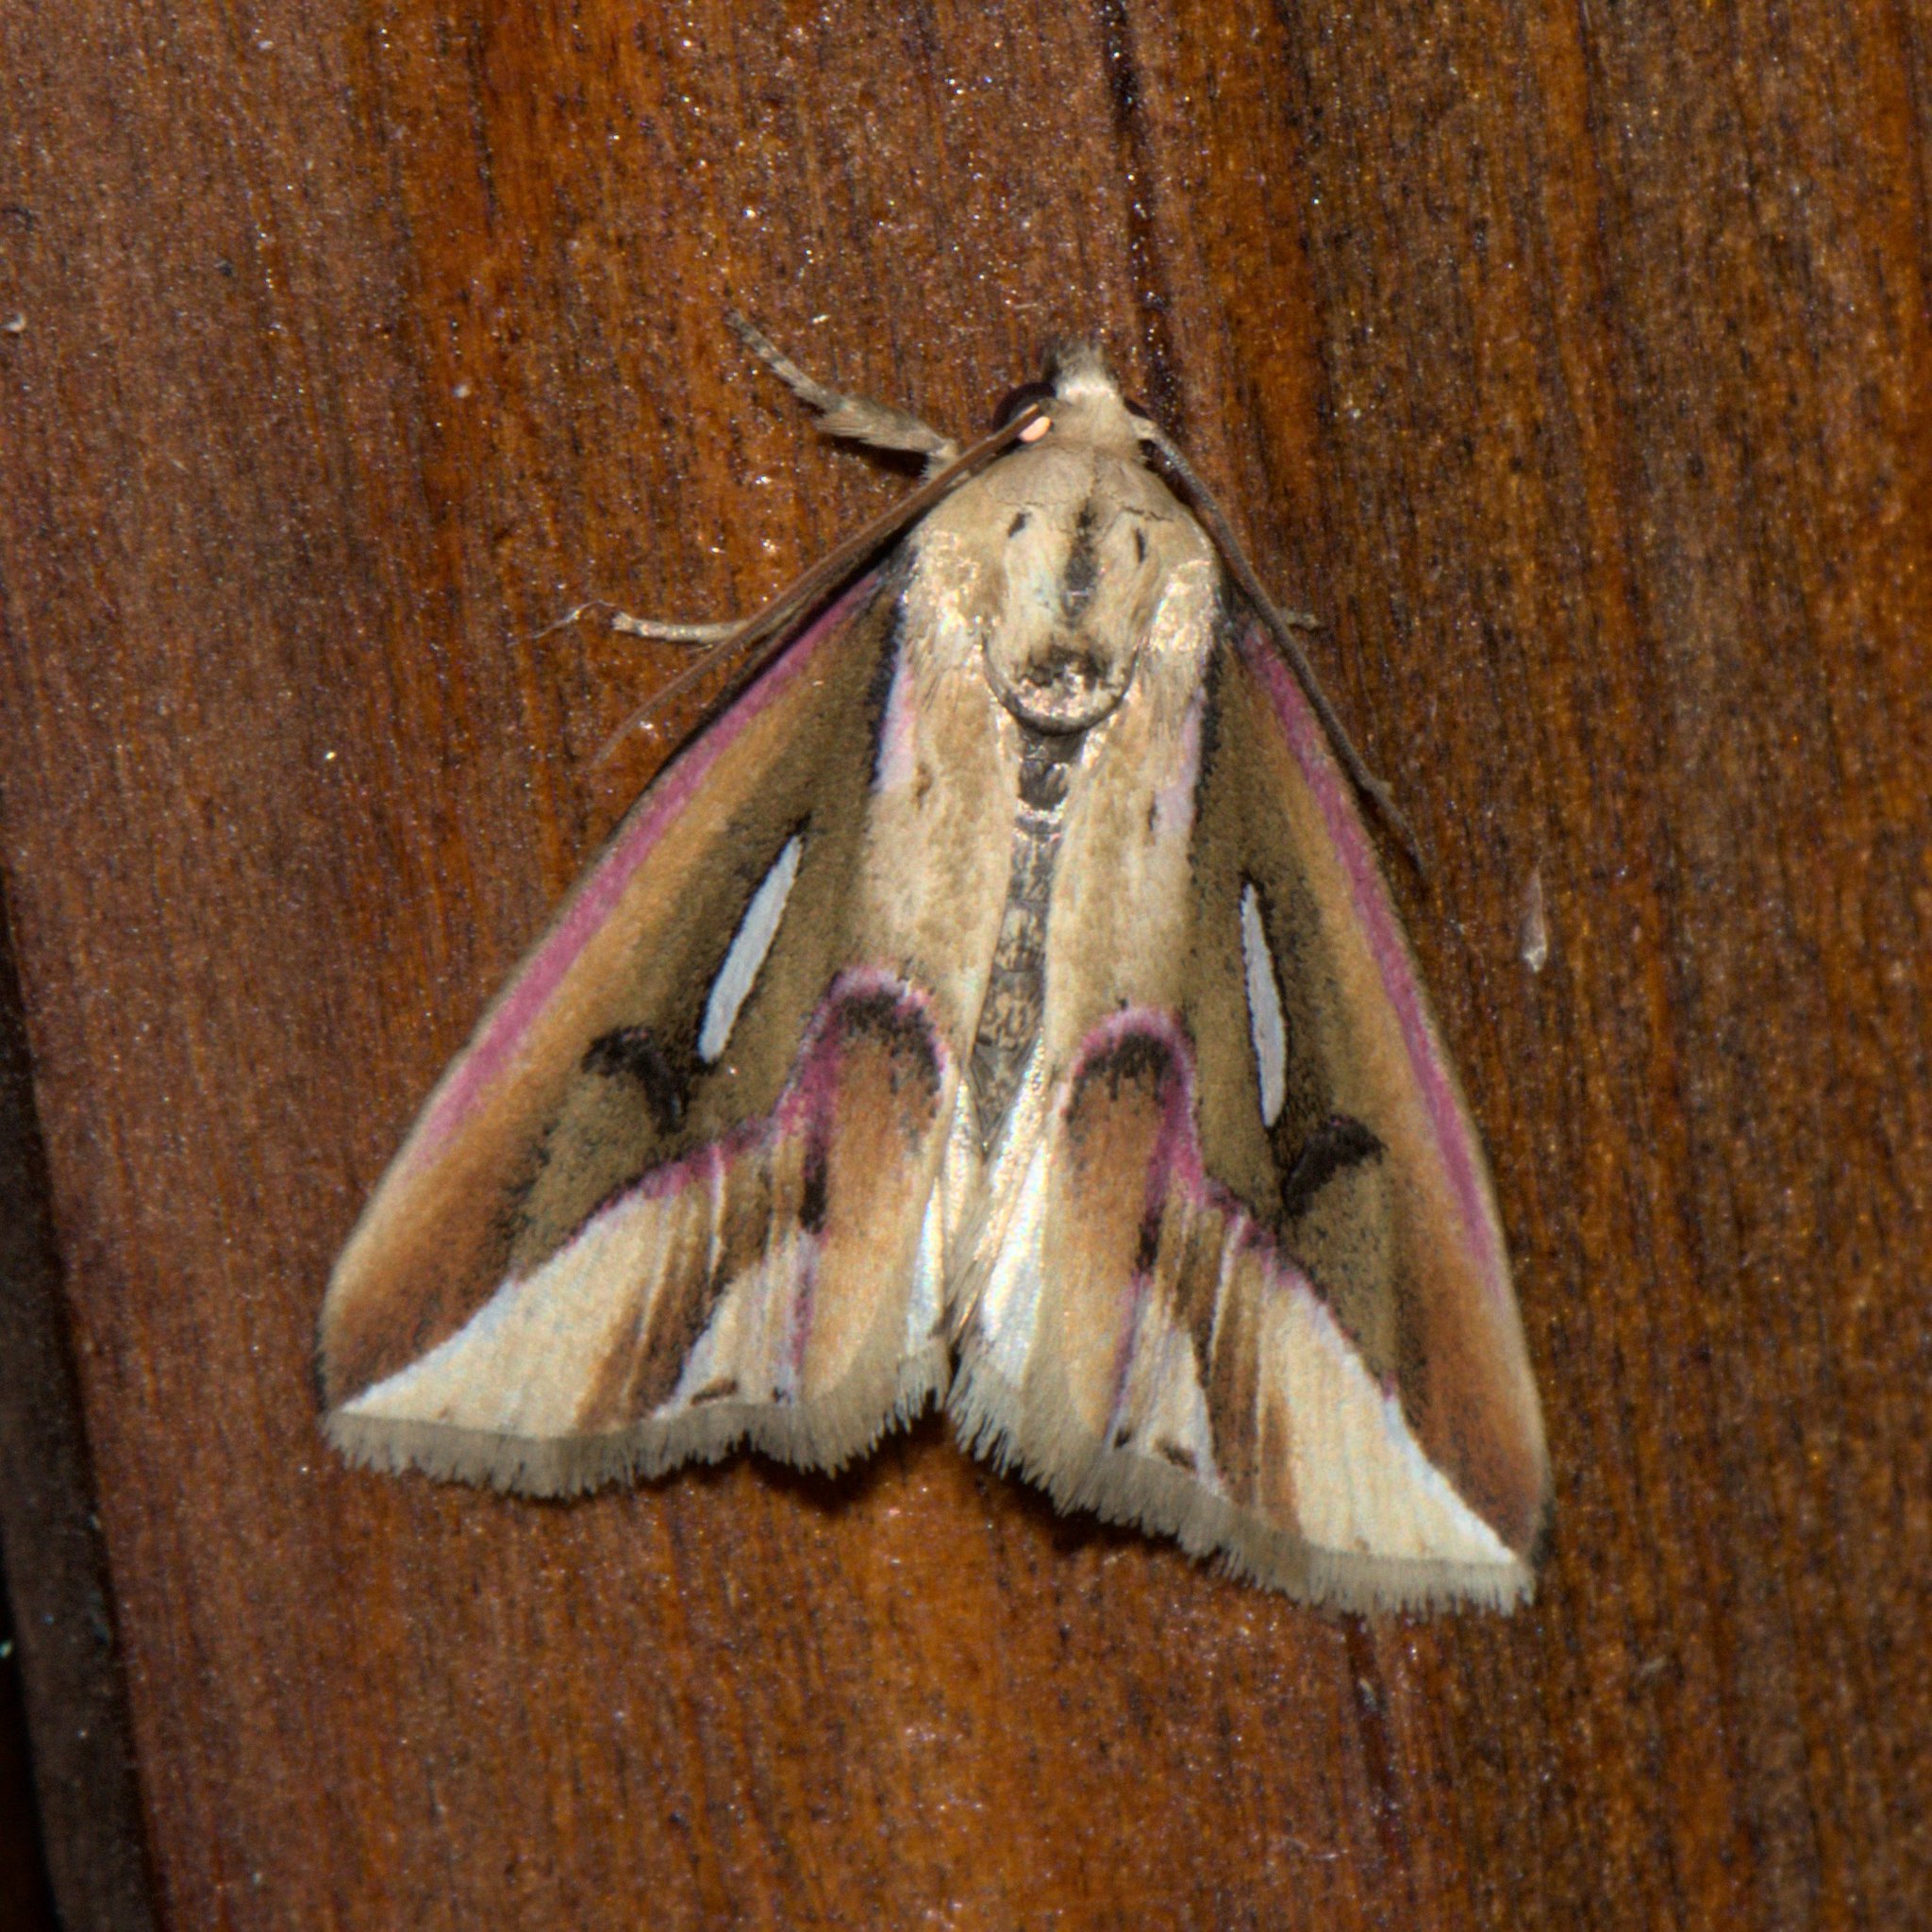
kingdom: Animalia
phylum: Arthropoda
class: Insecta
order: Lepidoptera
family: Noctuidae
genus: Micardia
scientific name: Micardia pulcherrima
